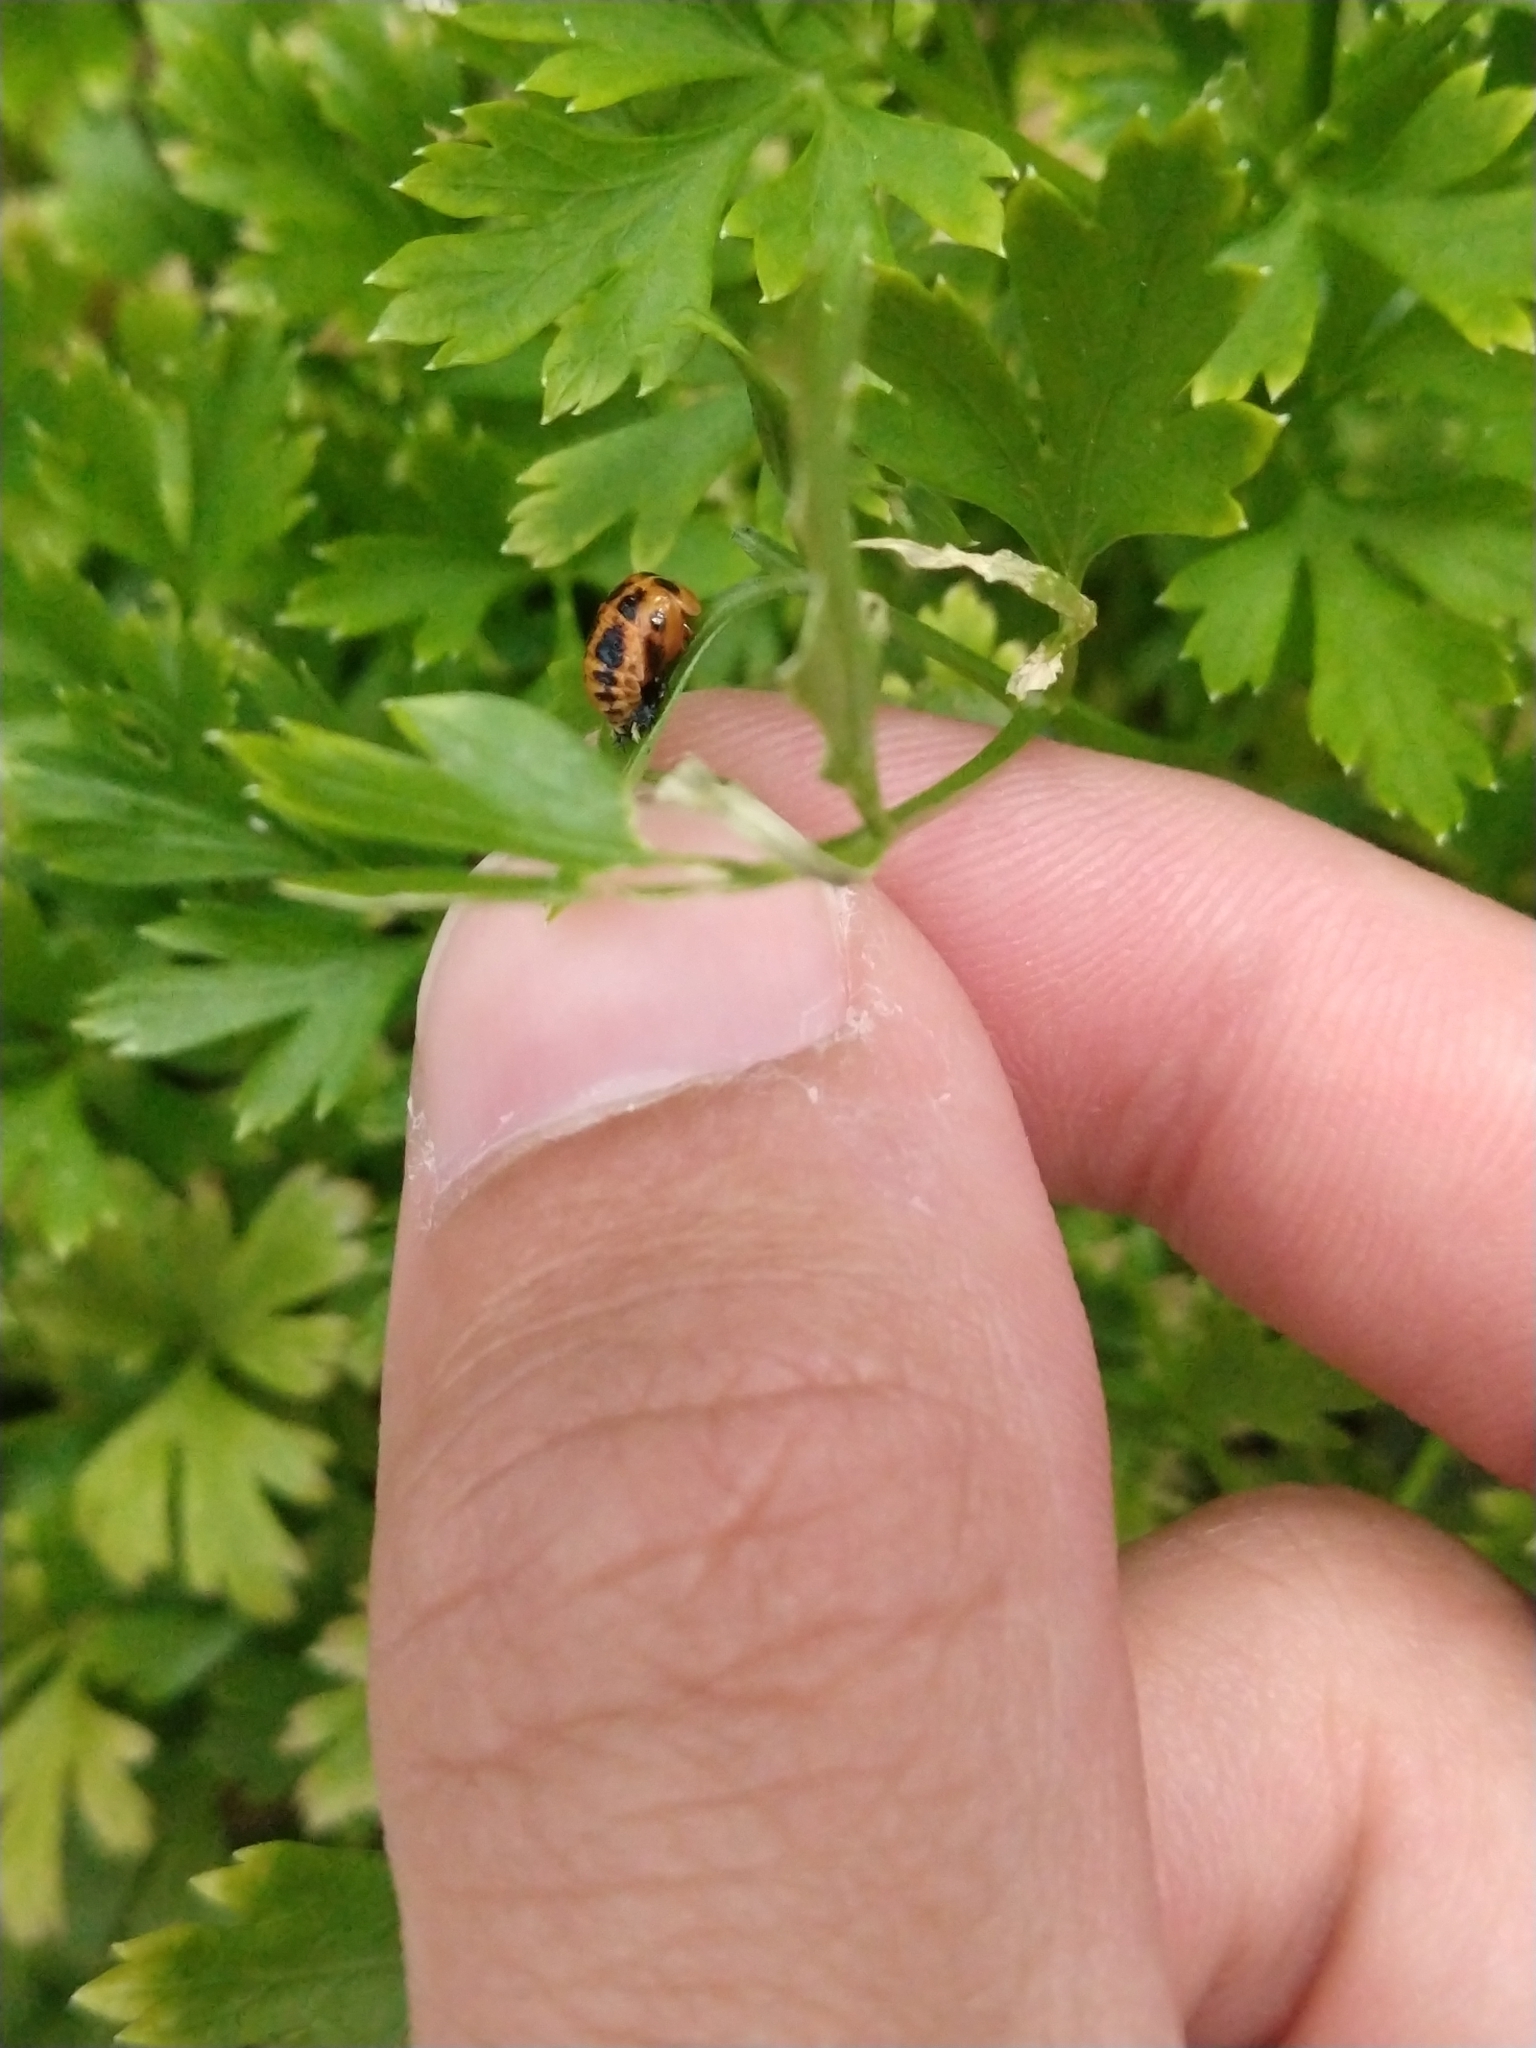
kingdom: Animalia
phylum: Arthropoda
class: Insecta
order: Coleoptera
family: Coccinellidae
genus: Harmonia
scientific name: Harmonia axyridis
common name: Harlequin ladybird
